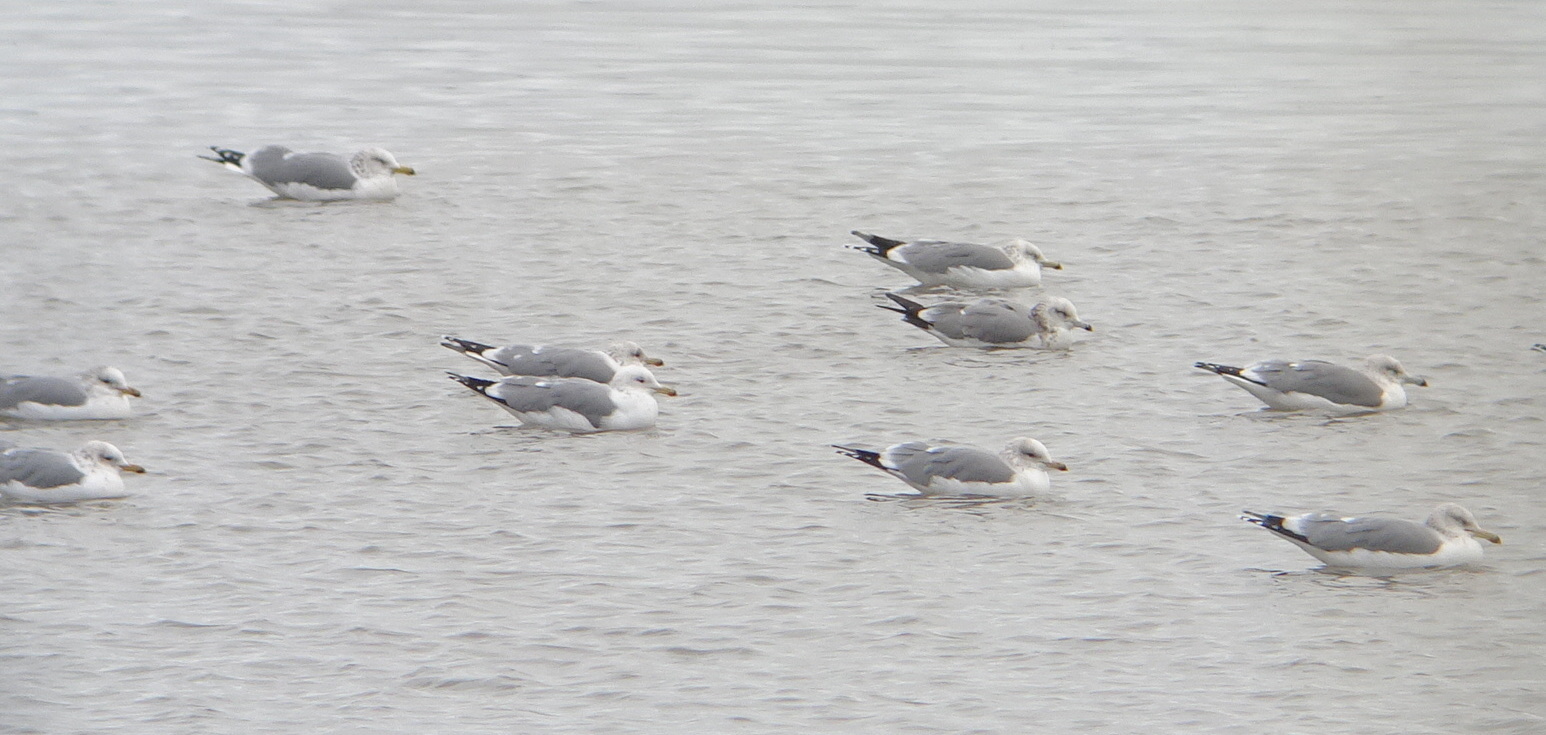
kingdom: Animalia
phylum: Chordata
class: Aves
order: Charadriiformes
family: Laridae
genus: Larus
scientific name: Larus californicus
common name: California gull
